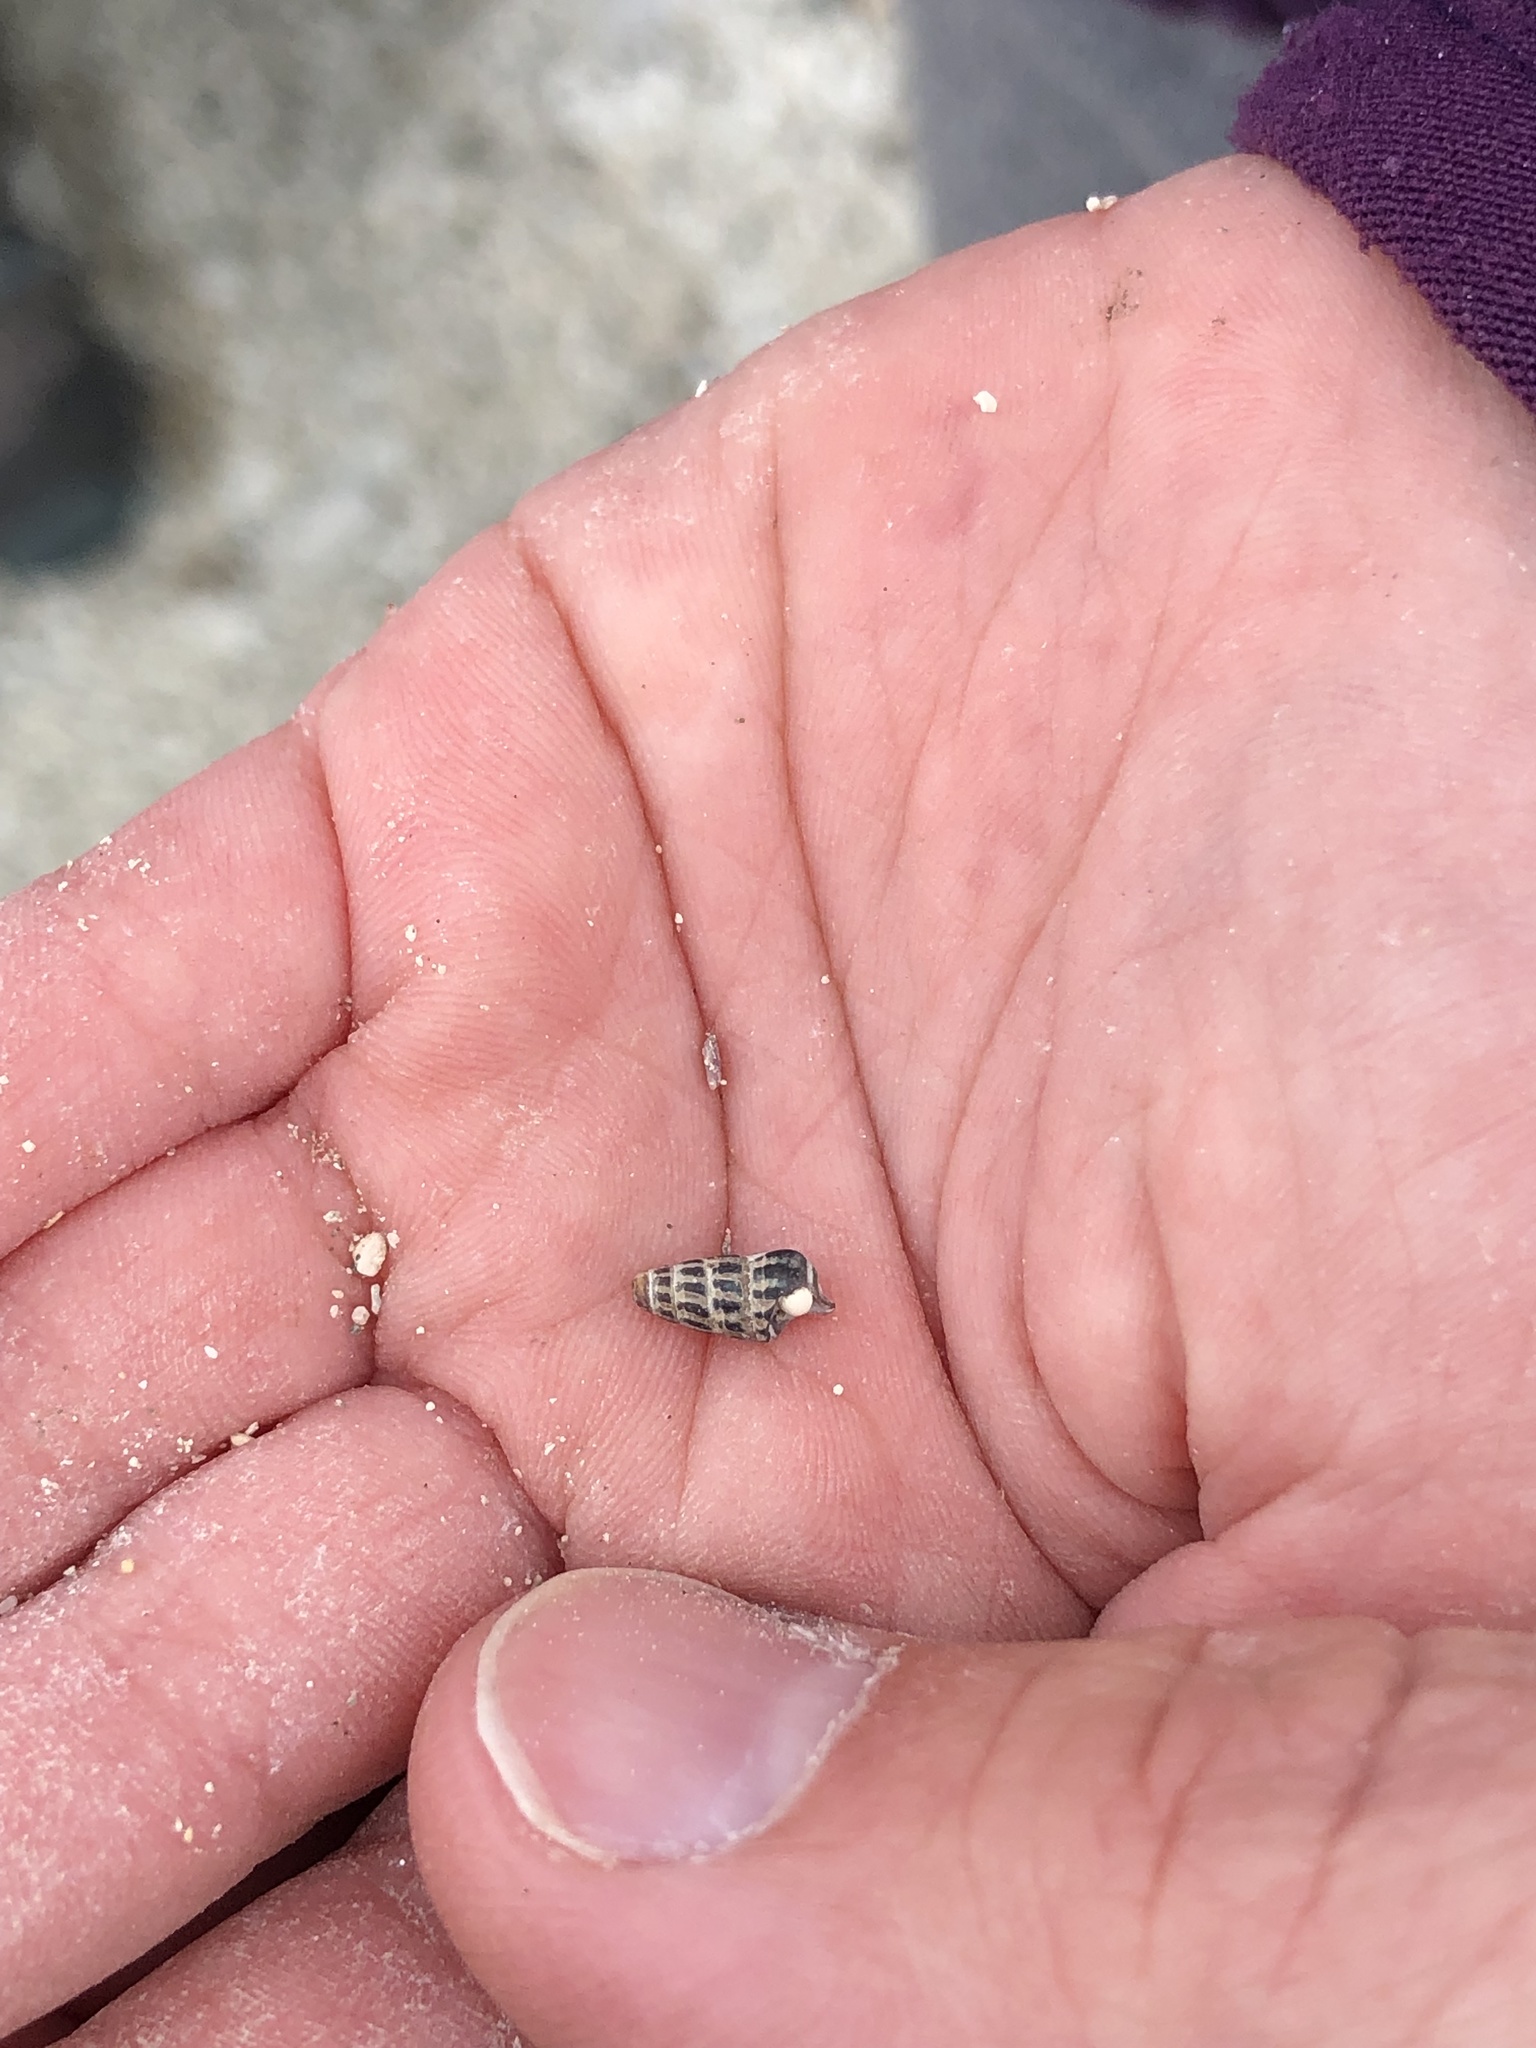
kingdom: Animalia
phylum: Mollusca
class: Gastropoda
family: Batillariidae
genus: Zeacumantus
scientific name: Zeacumantus subcarinatus
